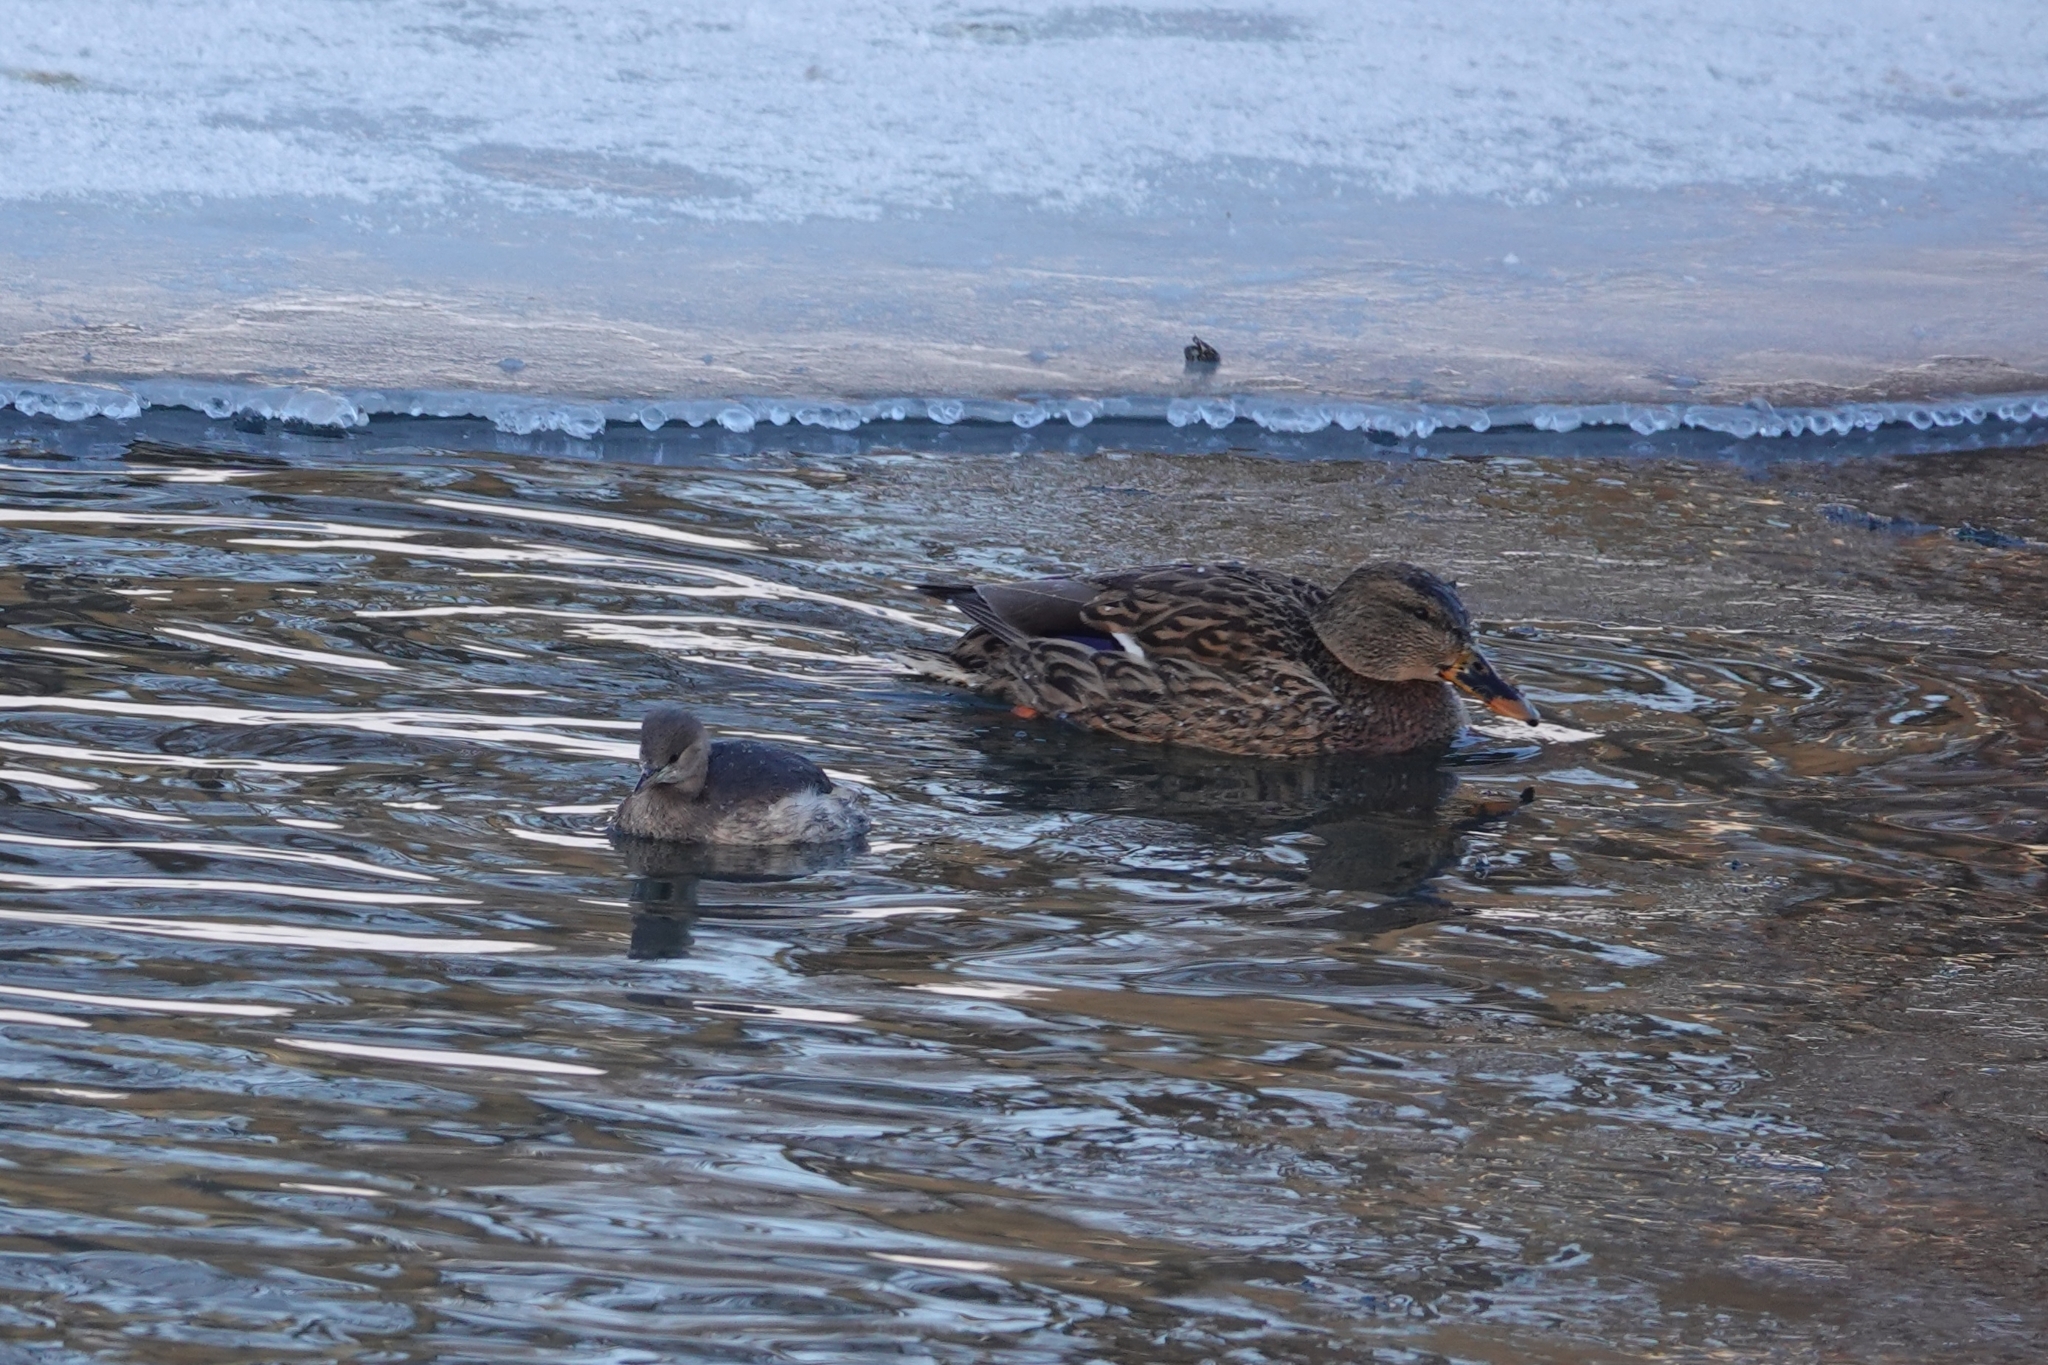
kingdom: Animalia
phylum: Chordata
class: Aves
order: Podicipediformes
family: Podicipedidae
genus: Tachybaptus
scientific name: Tachybaptus ruficollis
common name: Little grebe
